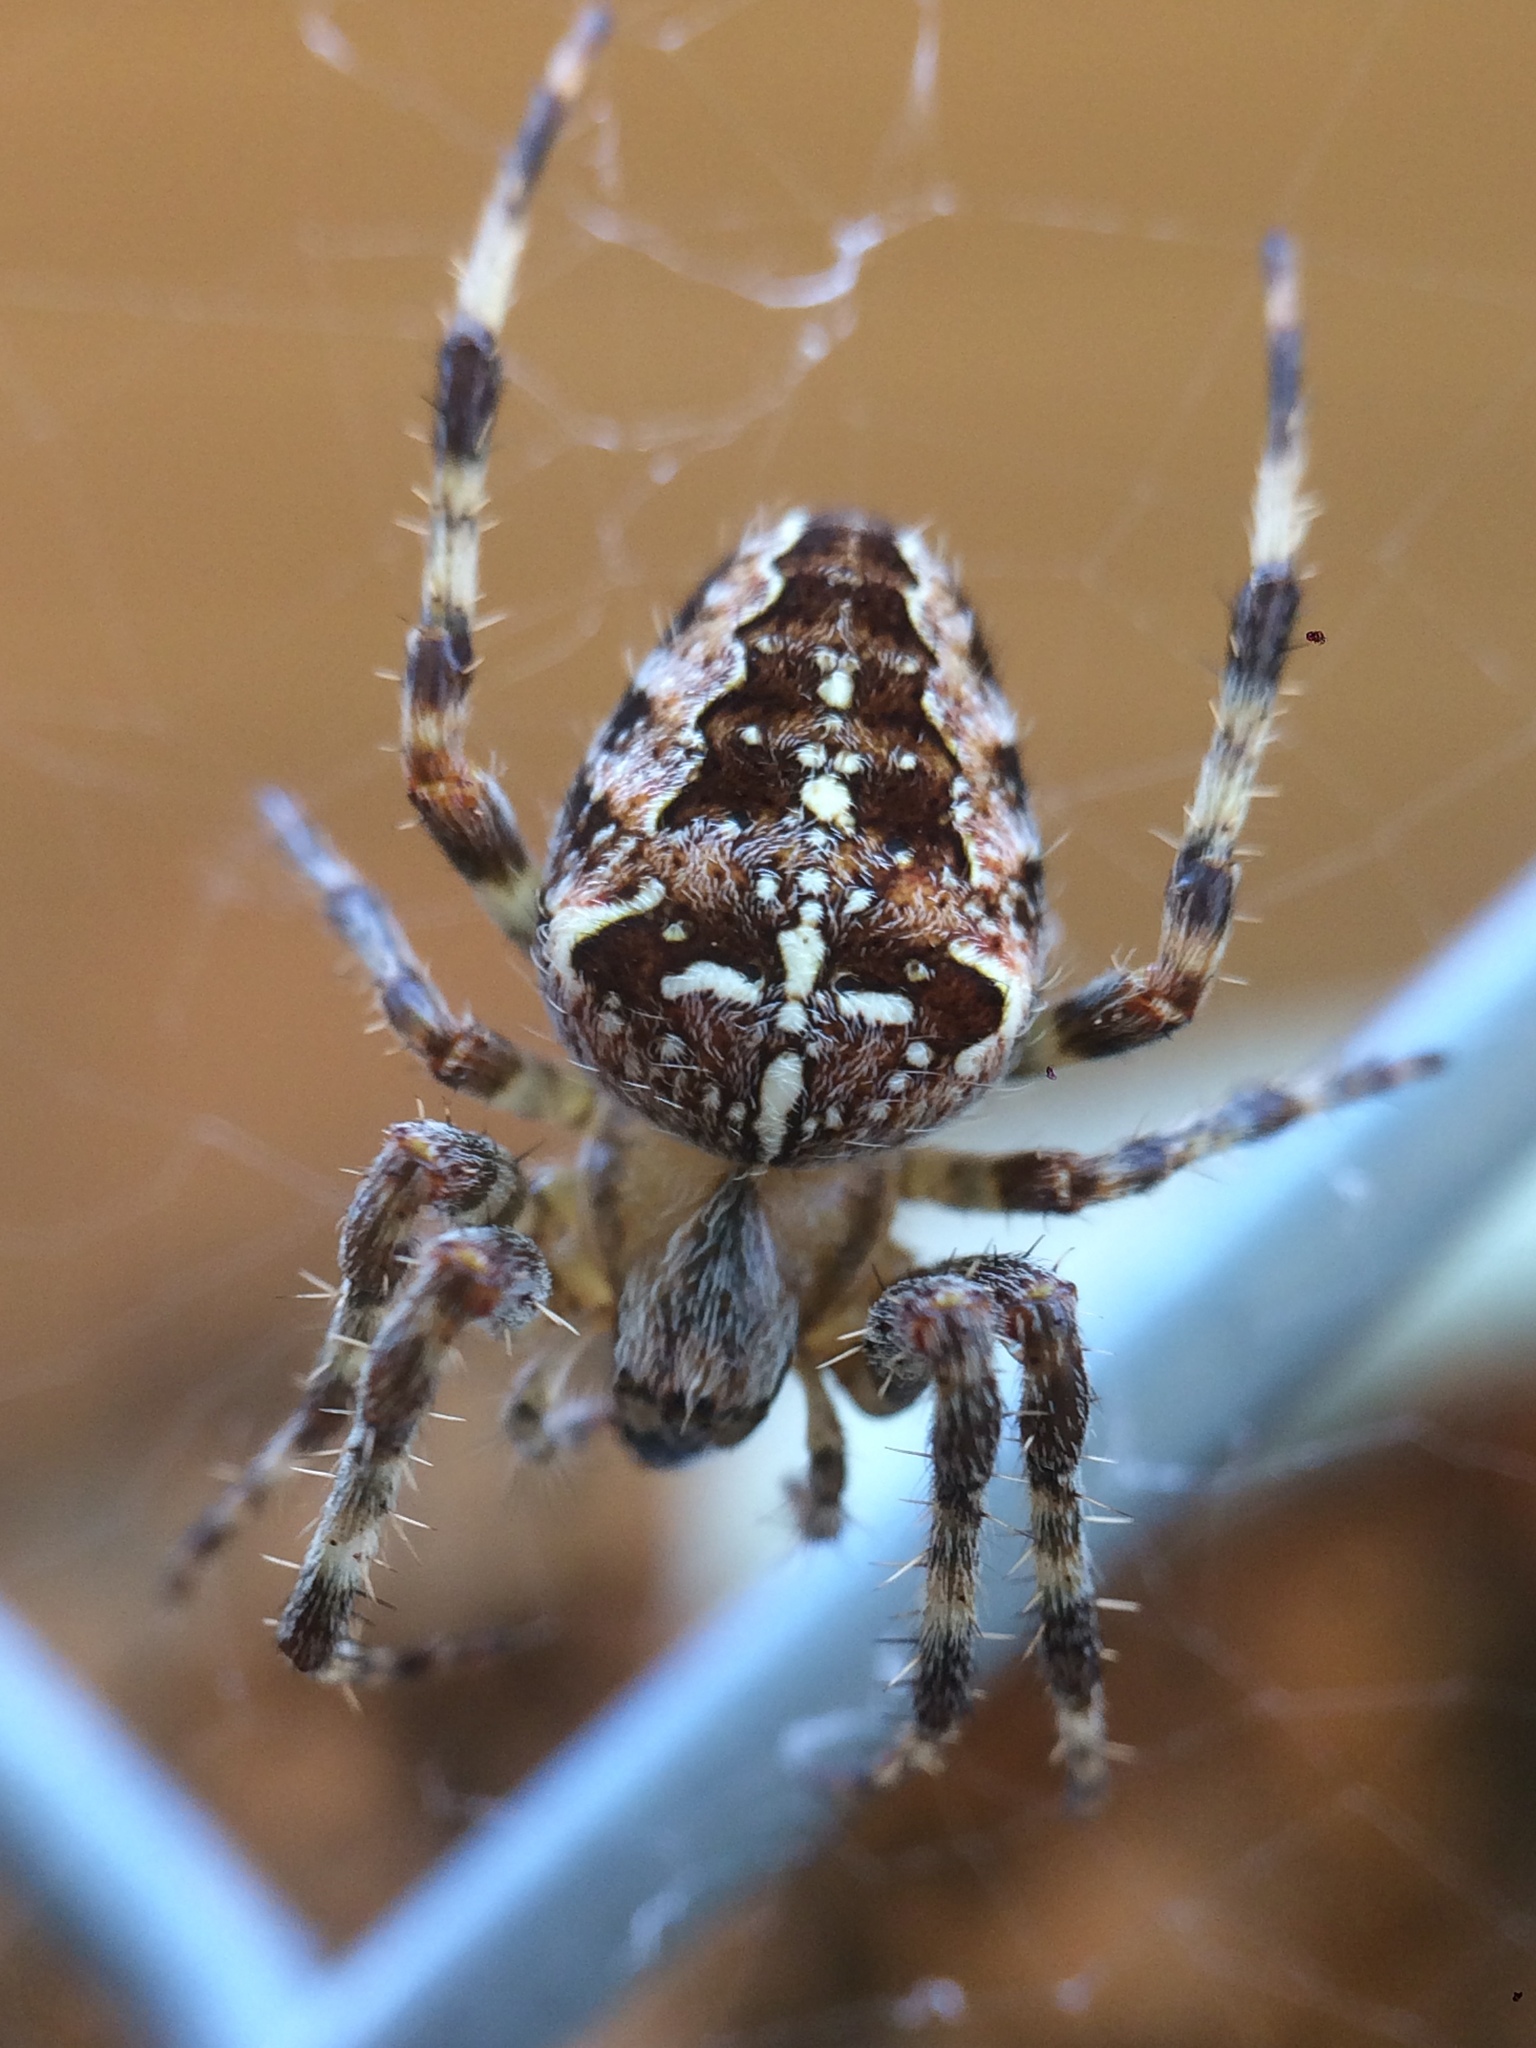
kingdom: Animalia
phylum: Arthropoda
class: Arachnida
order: Araneae
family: Araneidae
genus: Araneus
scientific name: Araneus diadematus
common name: Cross orbweaver
